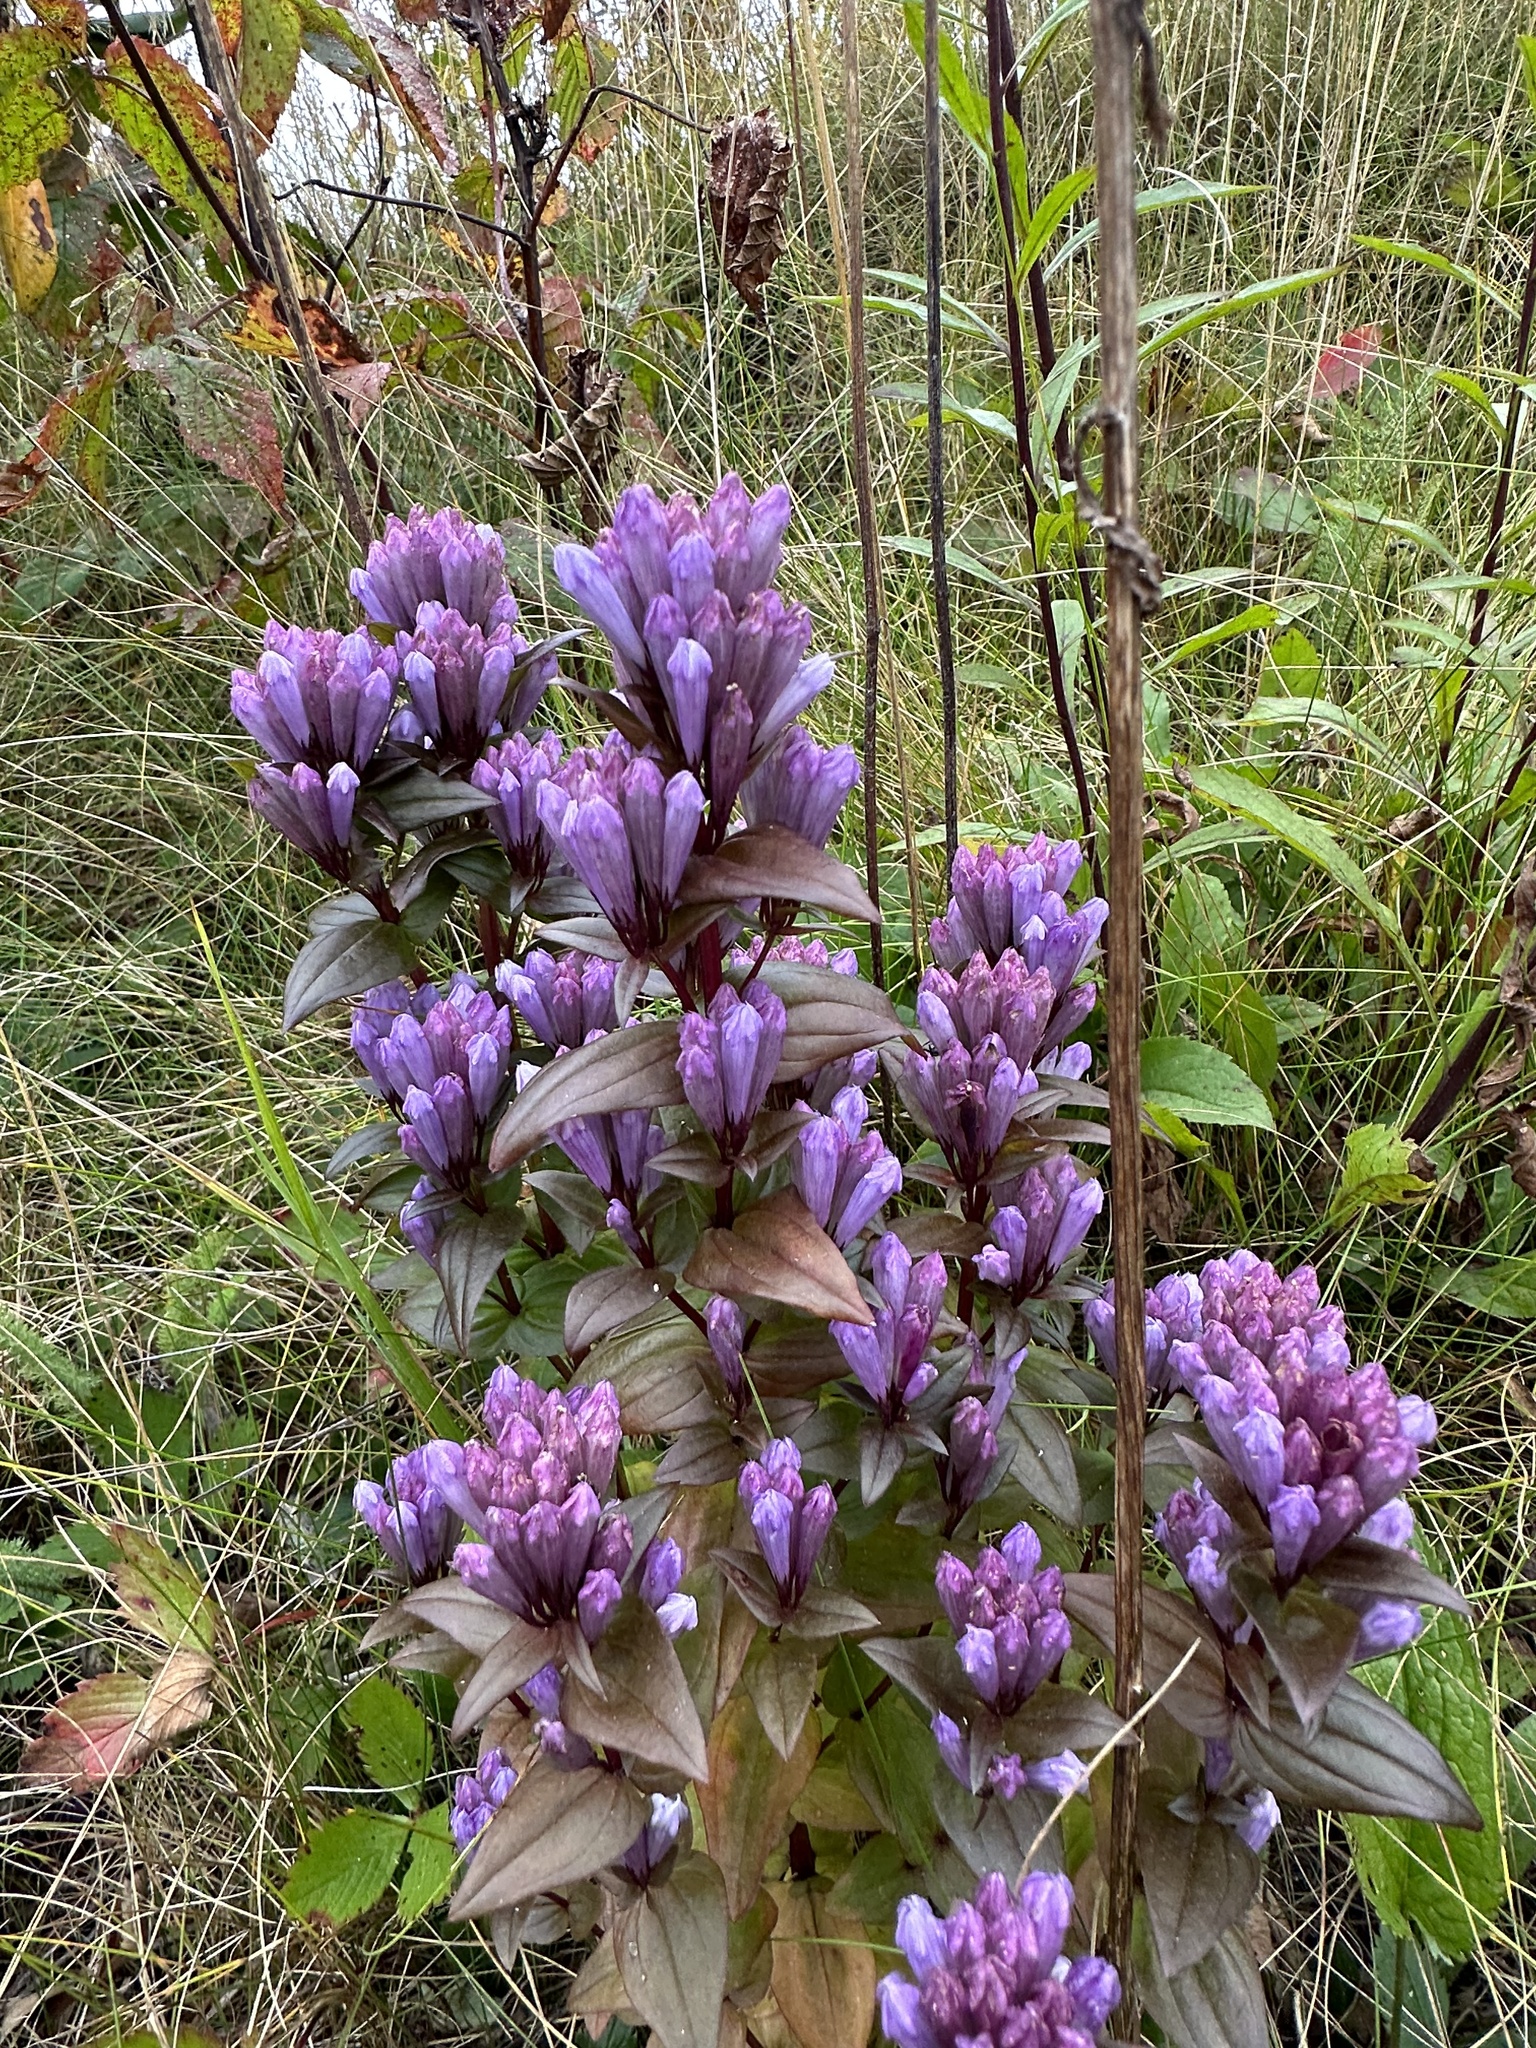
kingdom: Plantae
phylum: Tracheophyta
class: Magnoliopsida
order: Gentianales
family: Gentianaceae
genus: Gentianella
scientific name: Gentianella quinquefolia
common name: Agueweed
